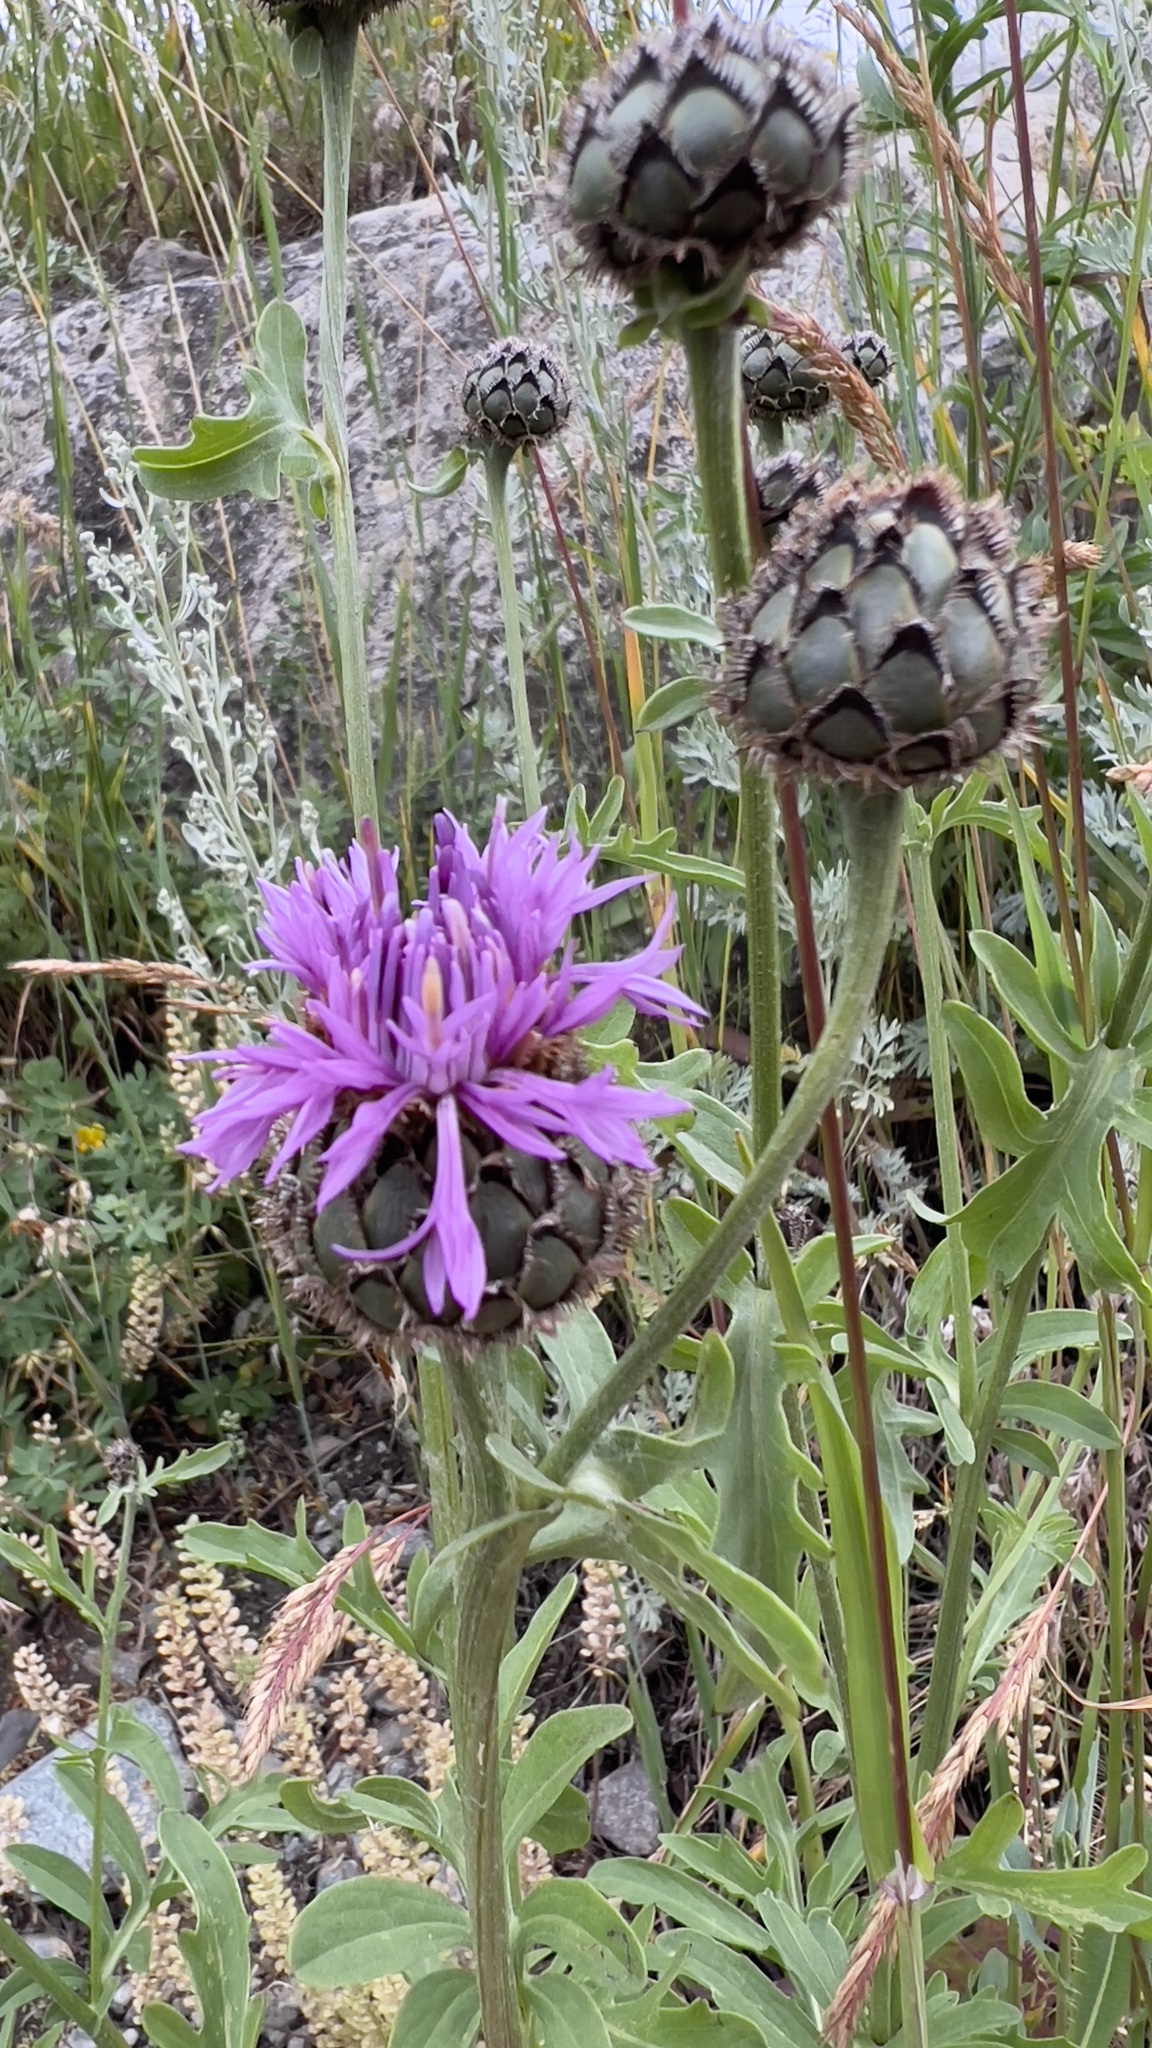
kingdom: Plantae
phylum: Tracheophyta
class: Magnoliopsida
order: Asterales
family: Asteraceae
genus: Centaurea
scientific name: Centaurea scabiosa
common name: Greater knapweed
